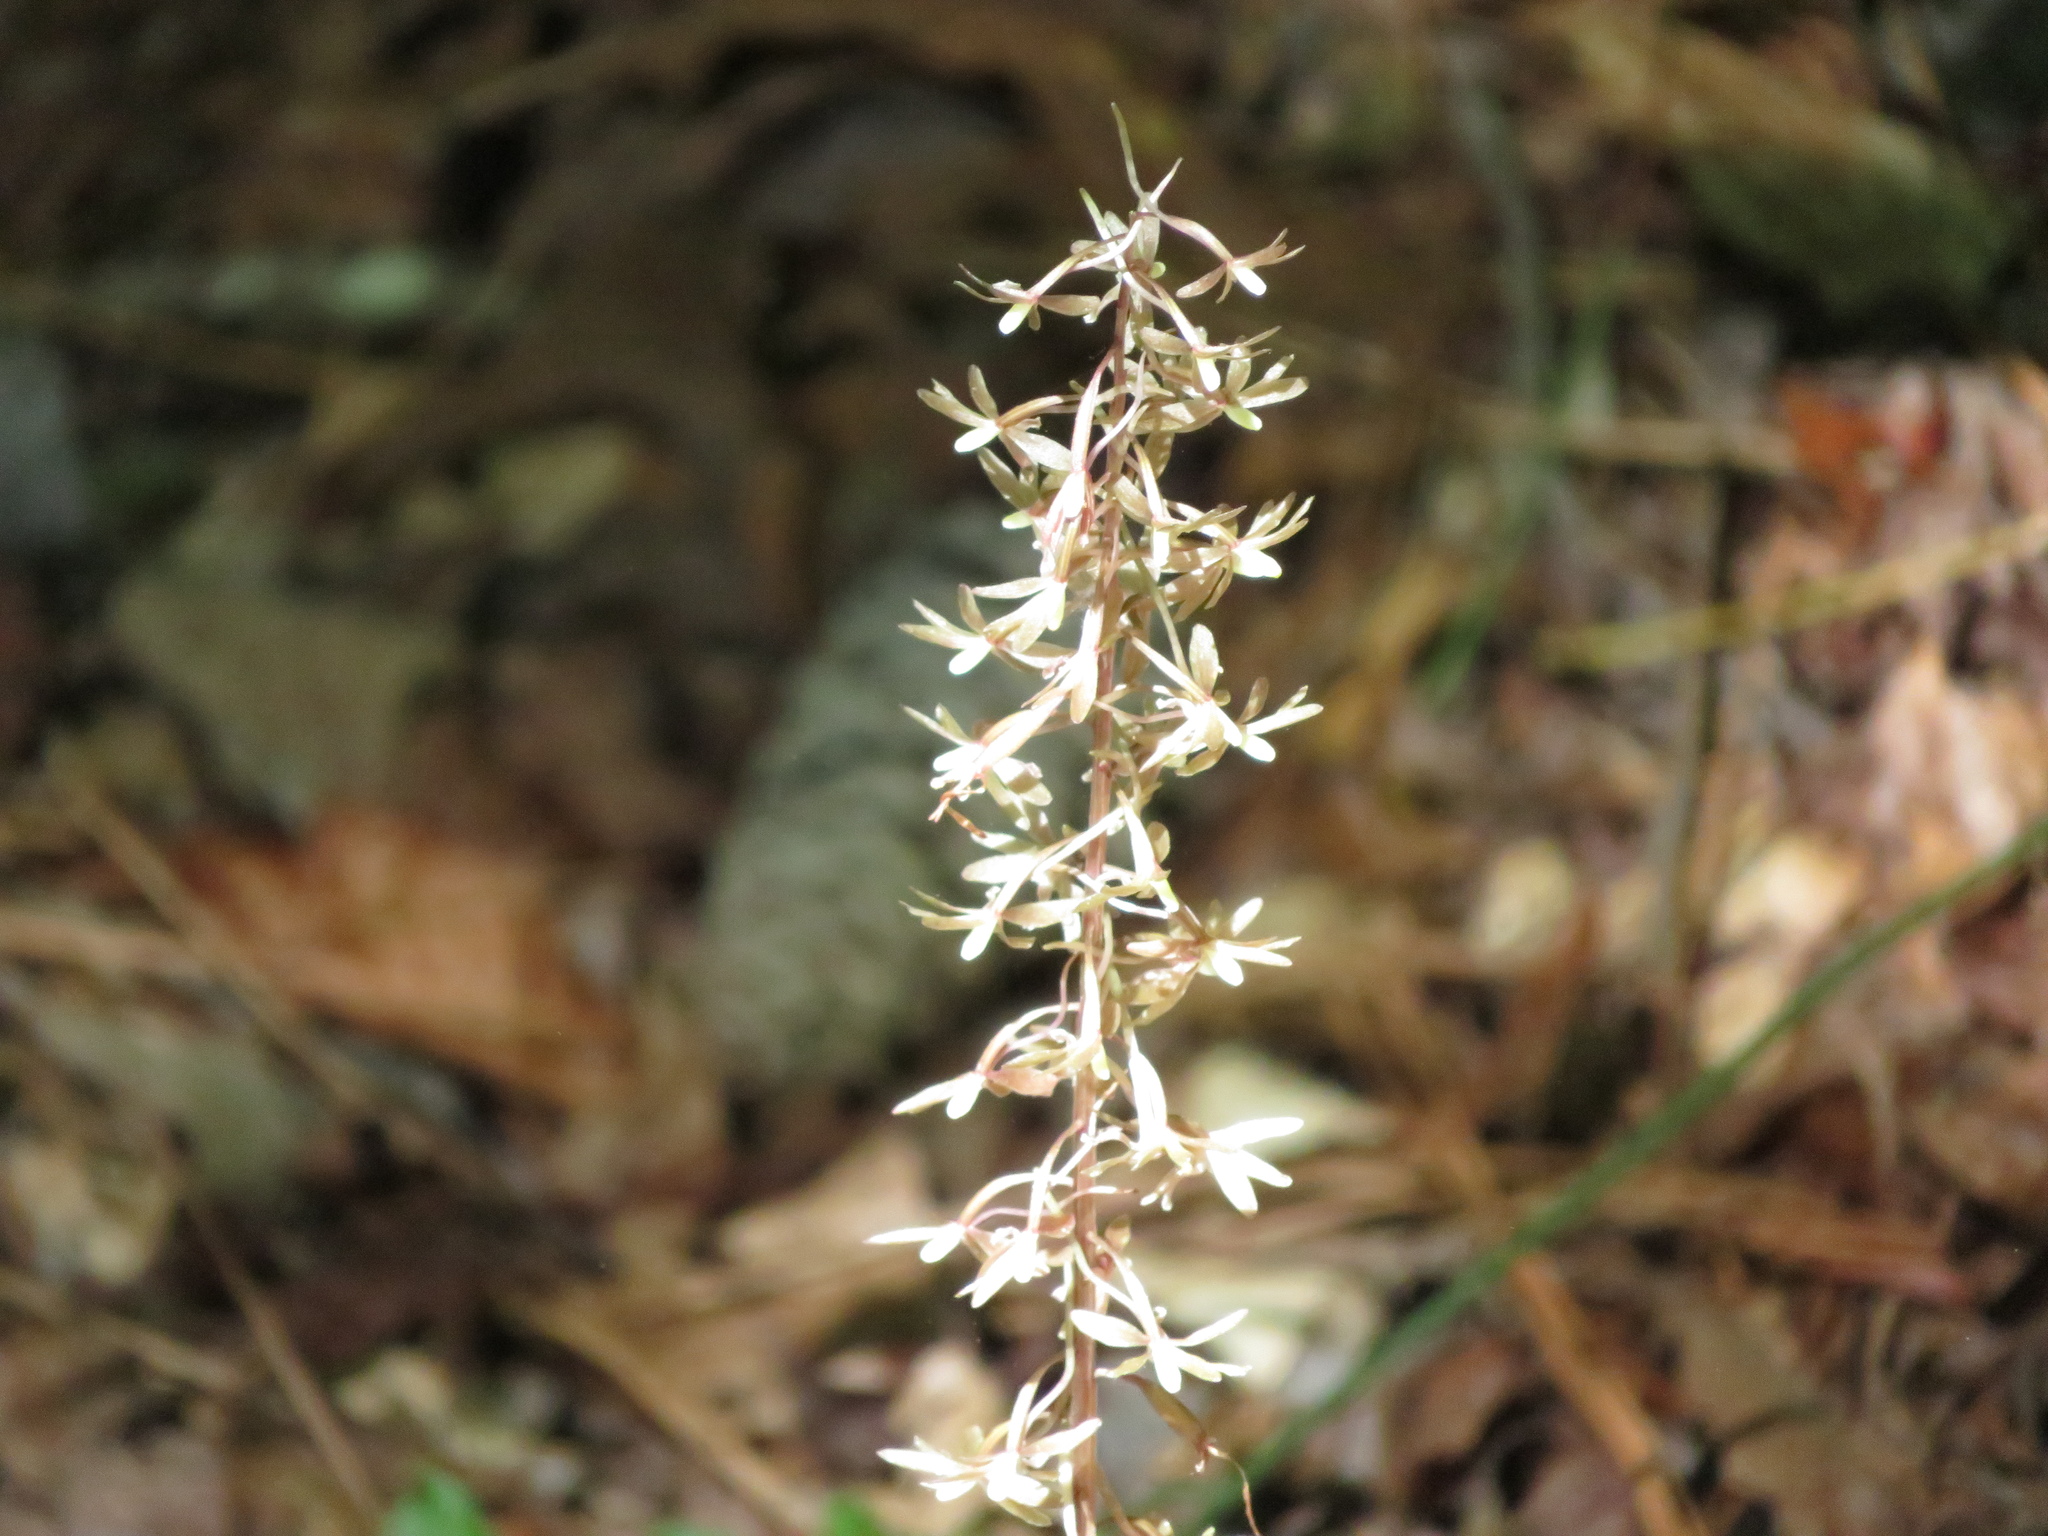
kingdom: Plantae
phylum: Tracheophyta
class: Liliopsida
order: Asparagales
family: Orchidaceae
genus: Tipularia
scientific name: Tipularia discolor
